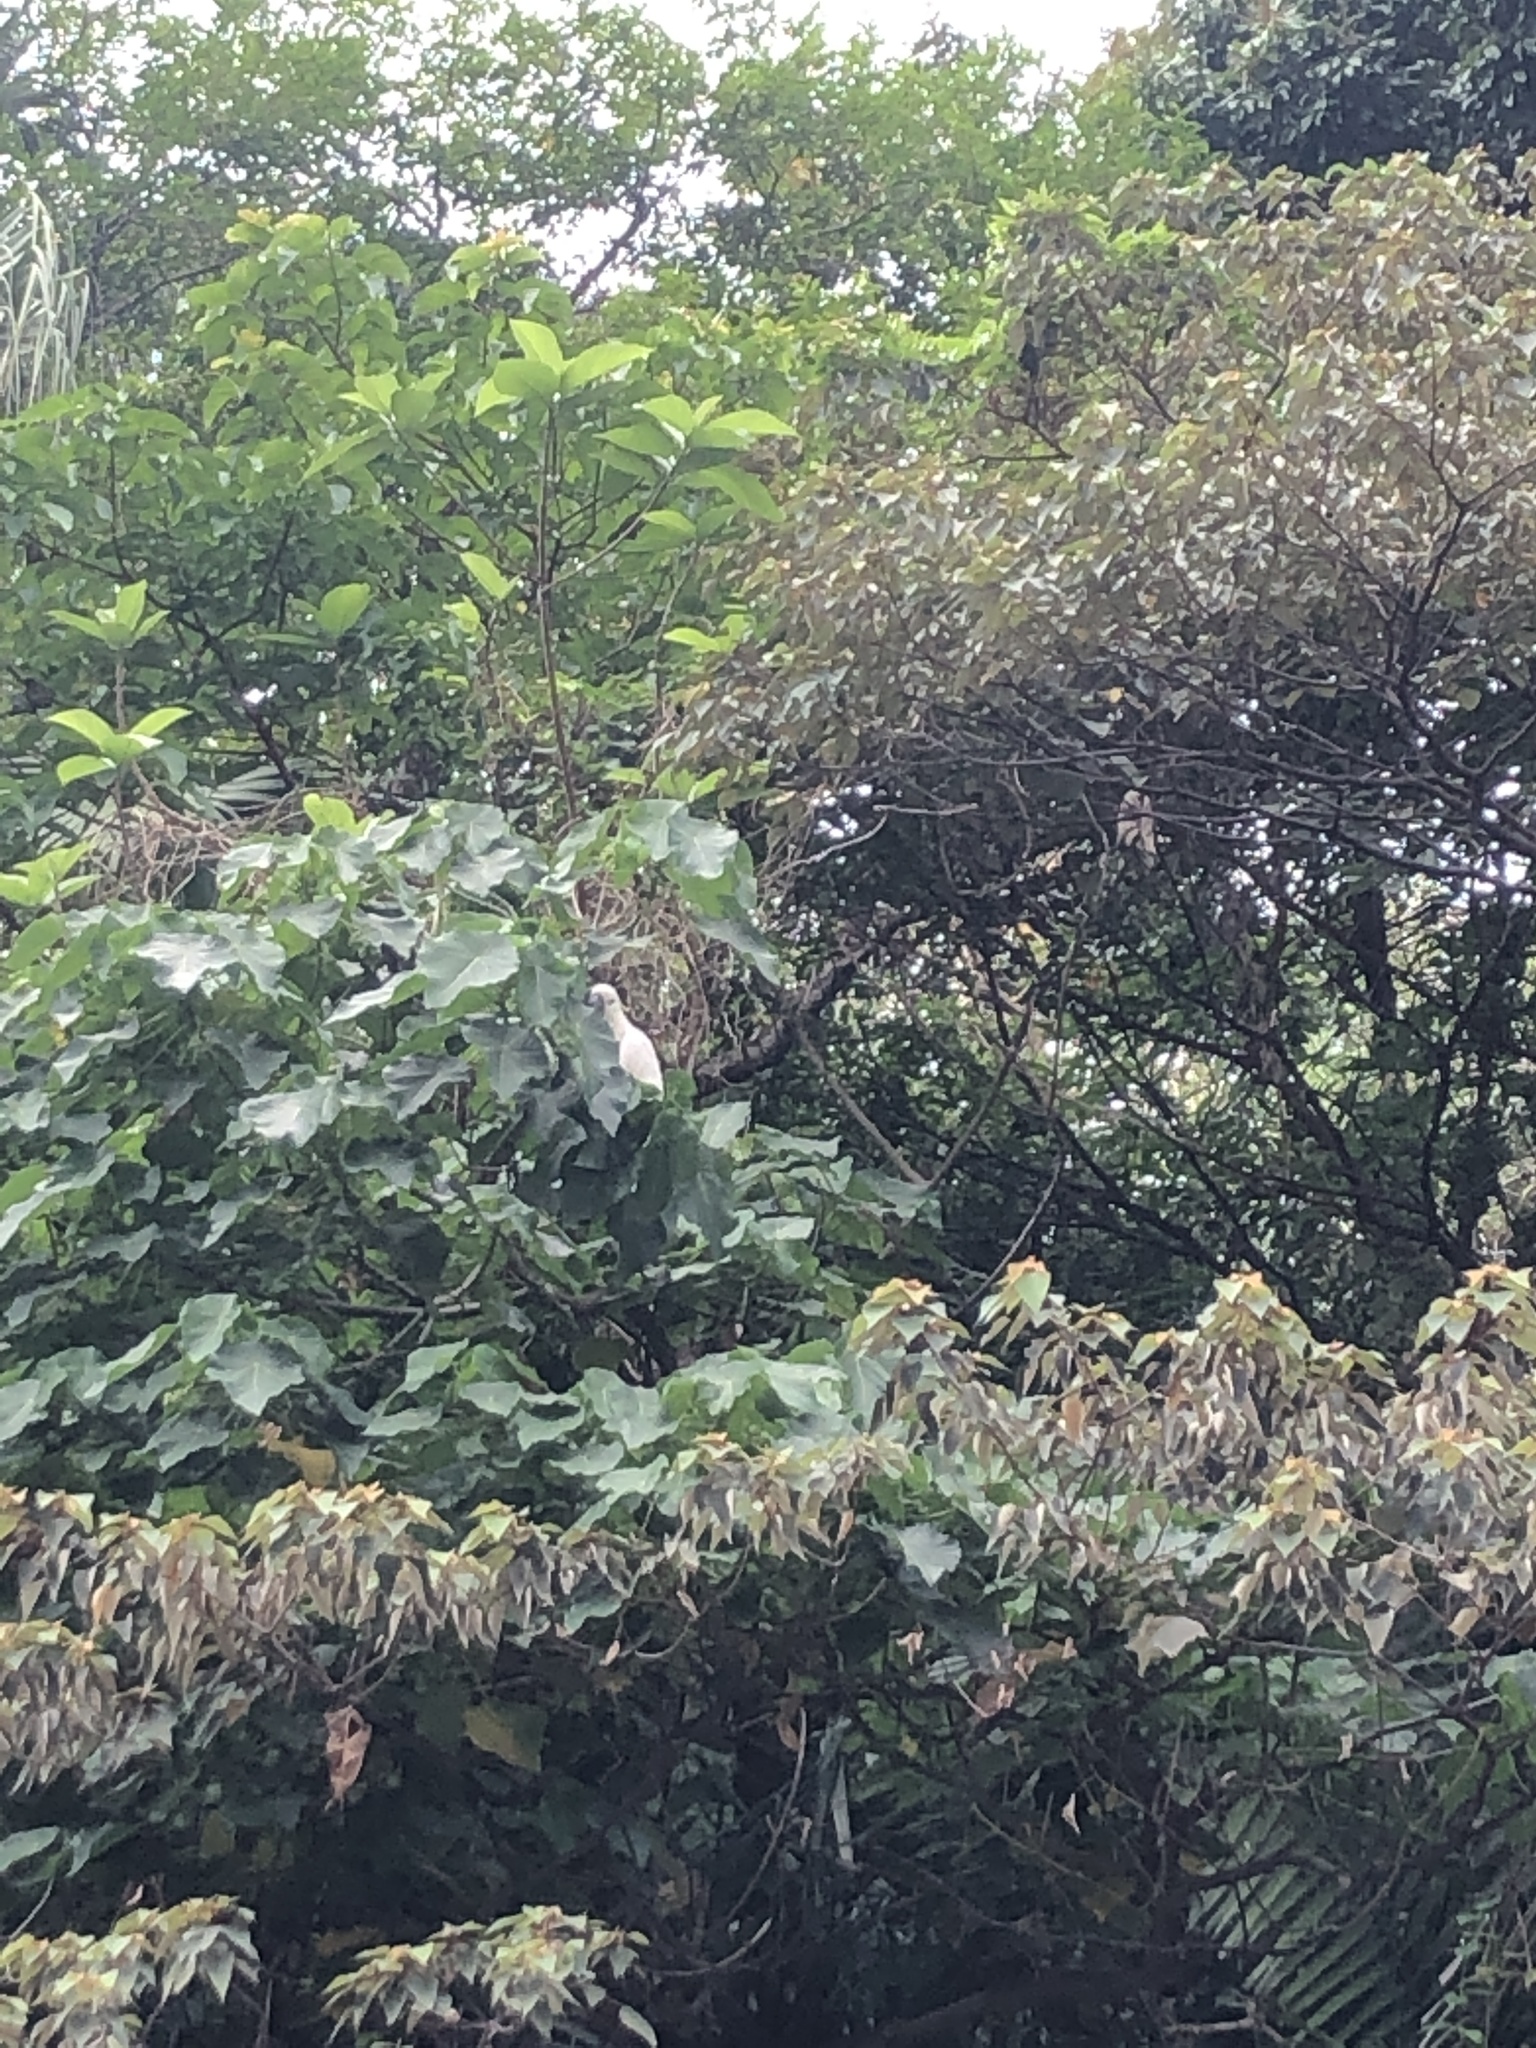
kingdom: Animalia
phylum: Chordata
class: Aves
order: Psittaciformes
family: Psittacidae
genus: Cacatua
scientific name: Cacatua sulphurea
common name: Yellow-crested cockatoo
